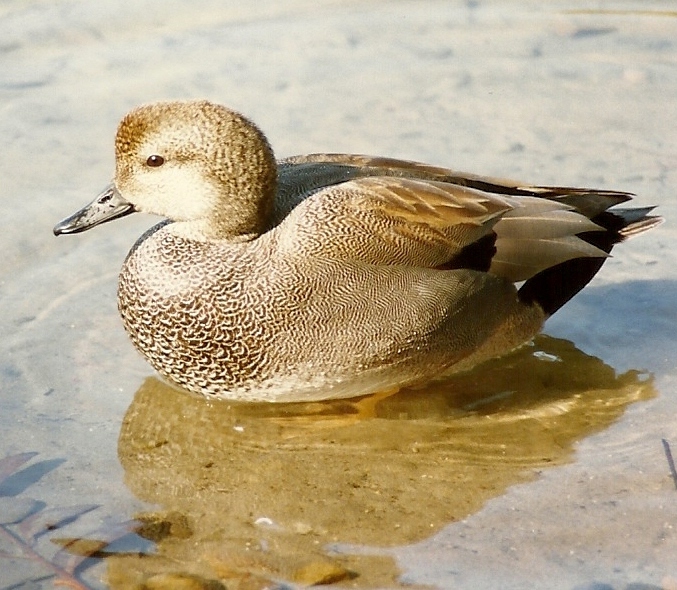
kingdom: Animalia
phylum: Chordata
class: Aves
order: Anseriformes
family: Anatidae
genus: Mareca
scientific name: Mareca strepera
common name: Gadwall
